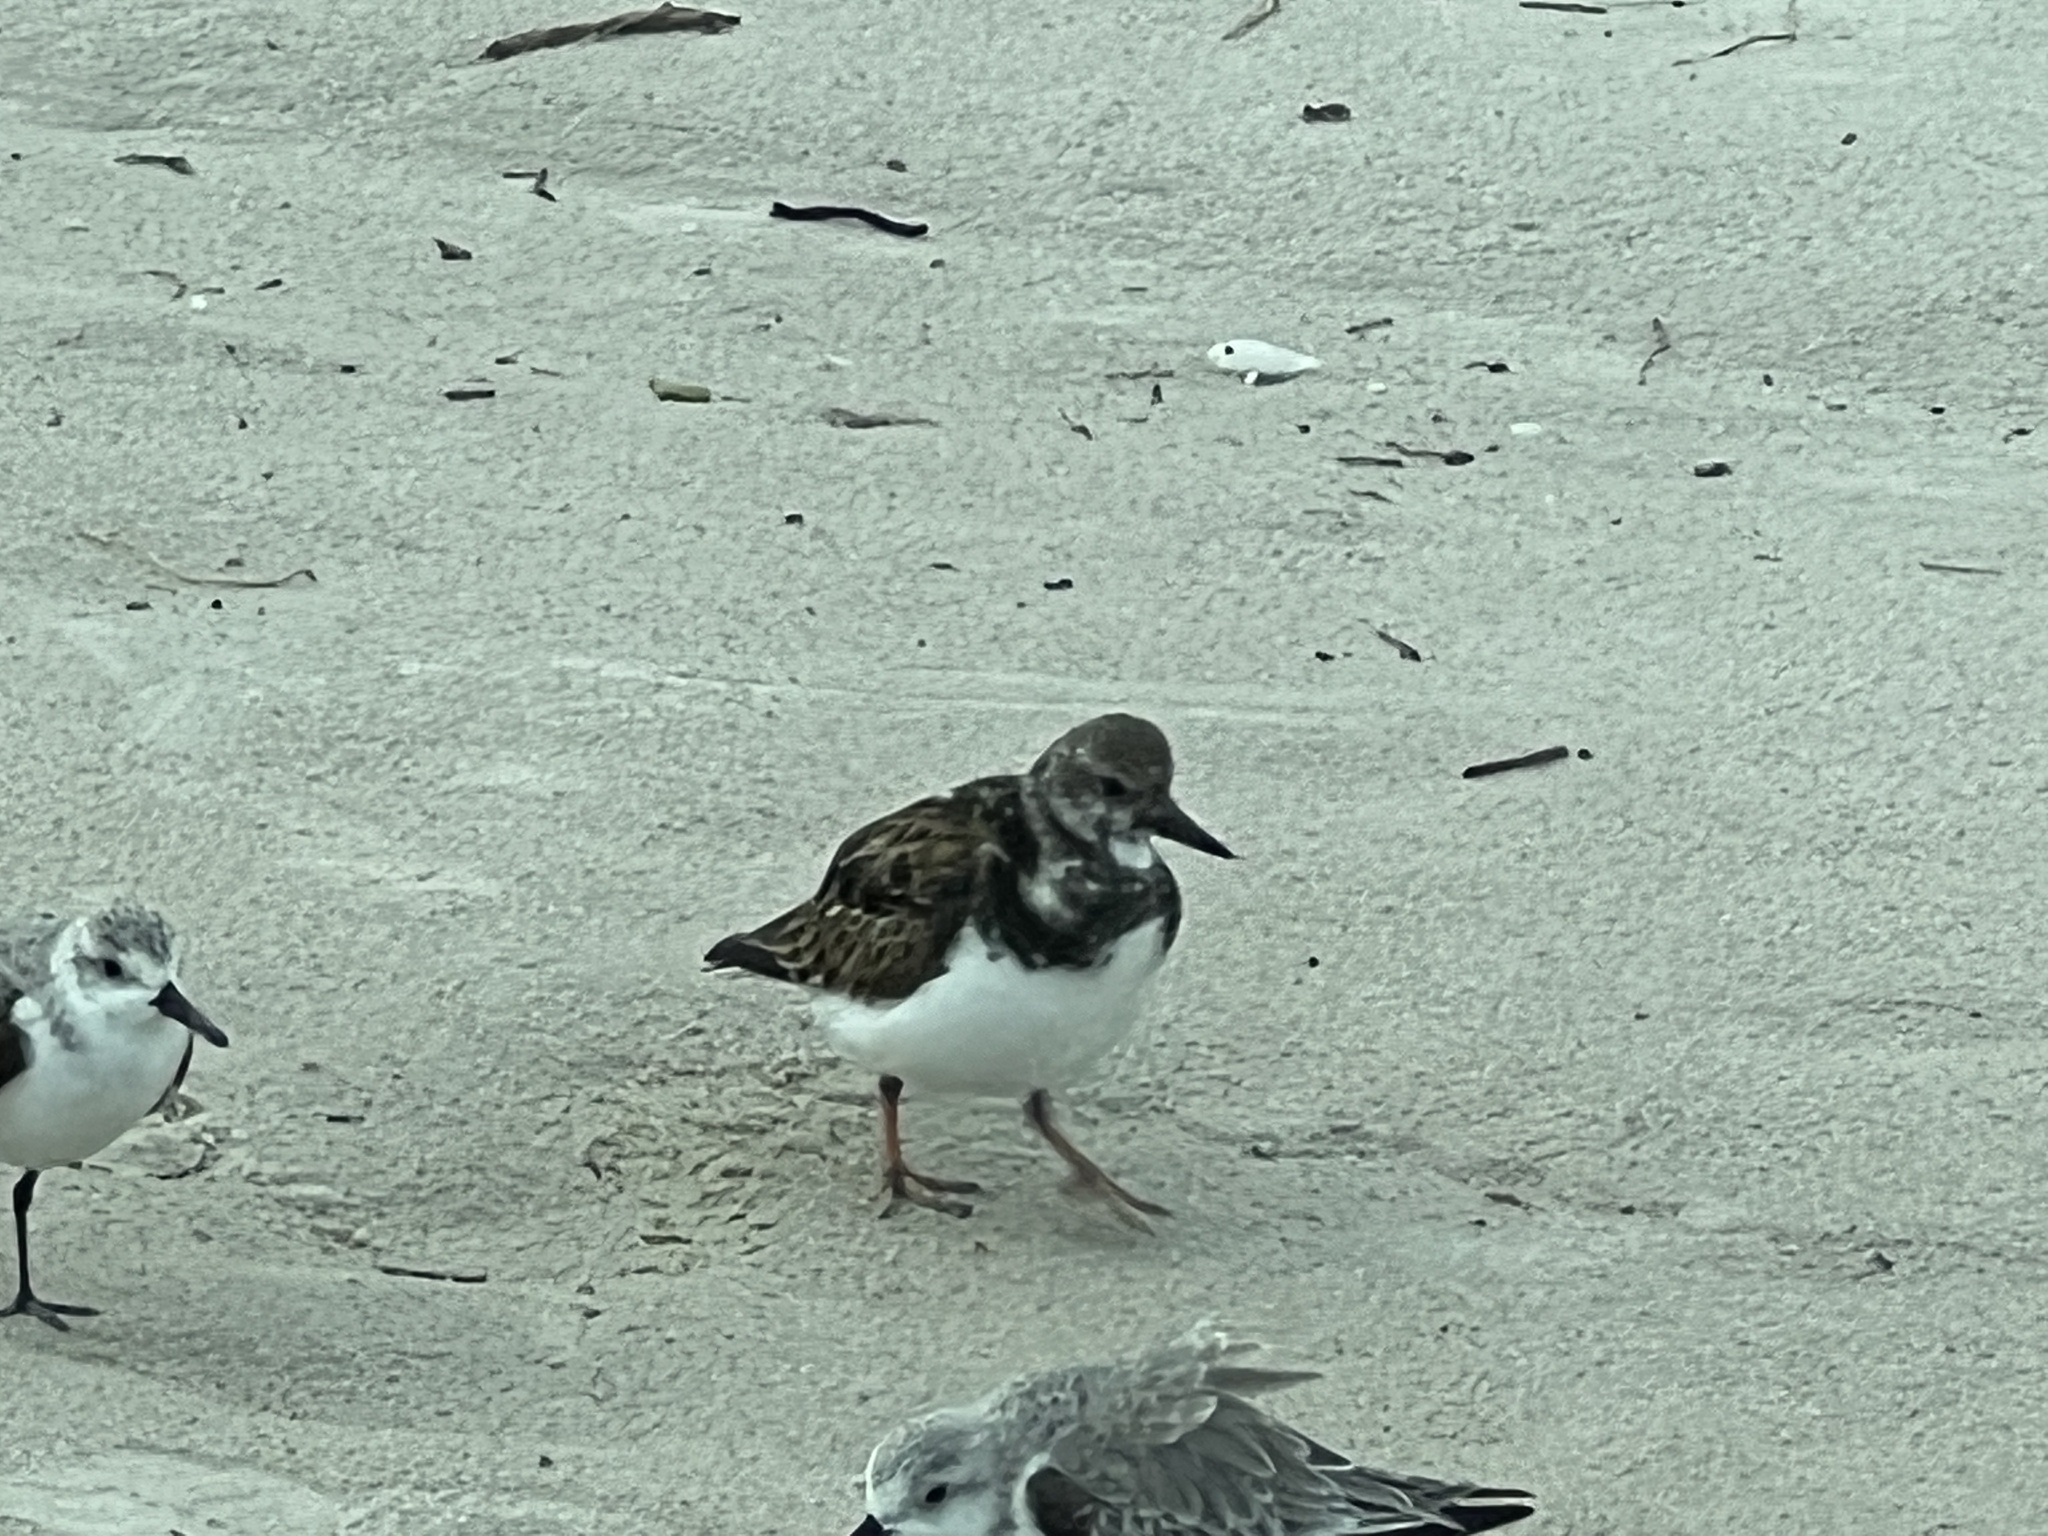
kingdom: Animalia
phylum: Chordata
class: Aves
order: Charadriiformes
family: Scolopacidae
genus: Arenaria
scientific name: Arenaria interpres
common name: Ruddy turnstone
